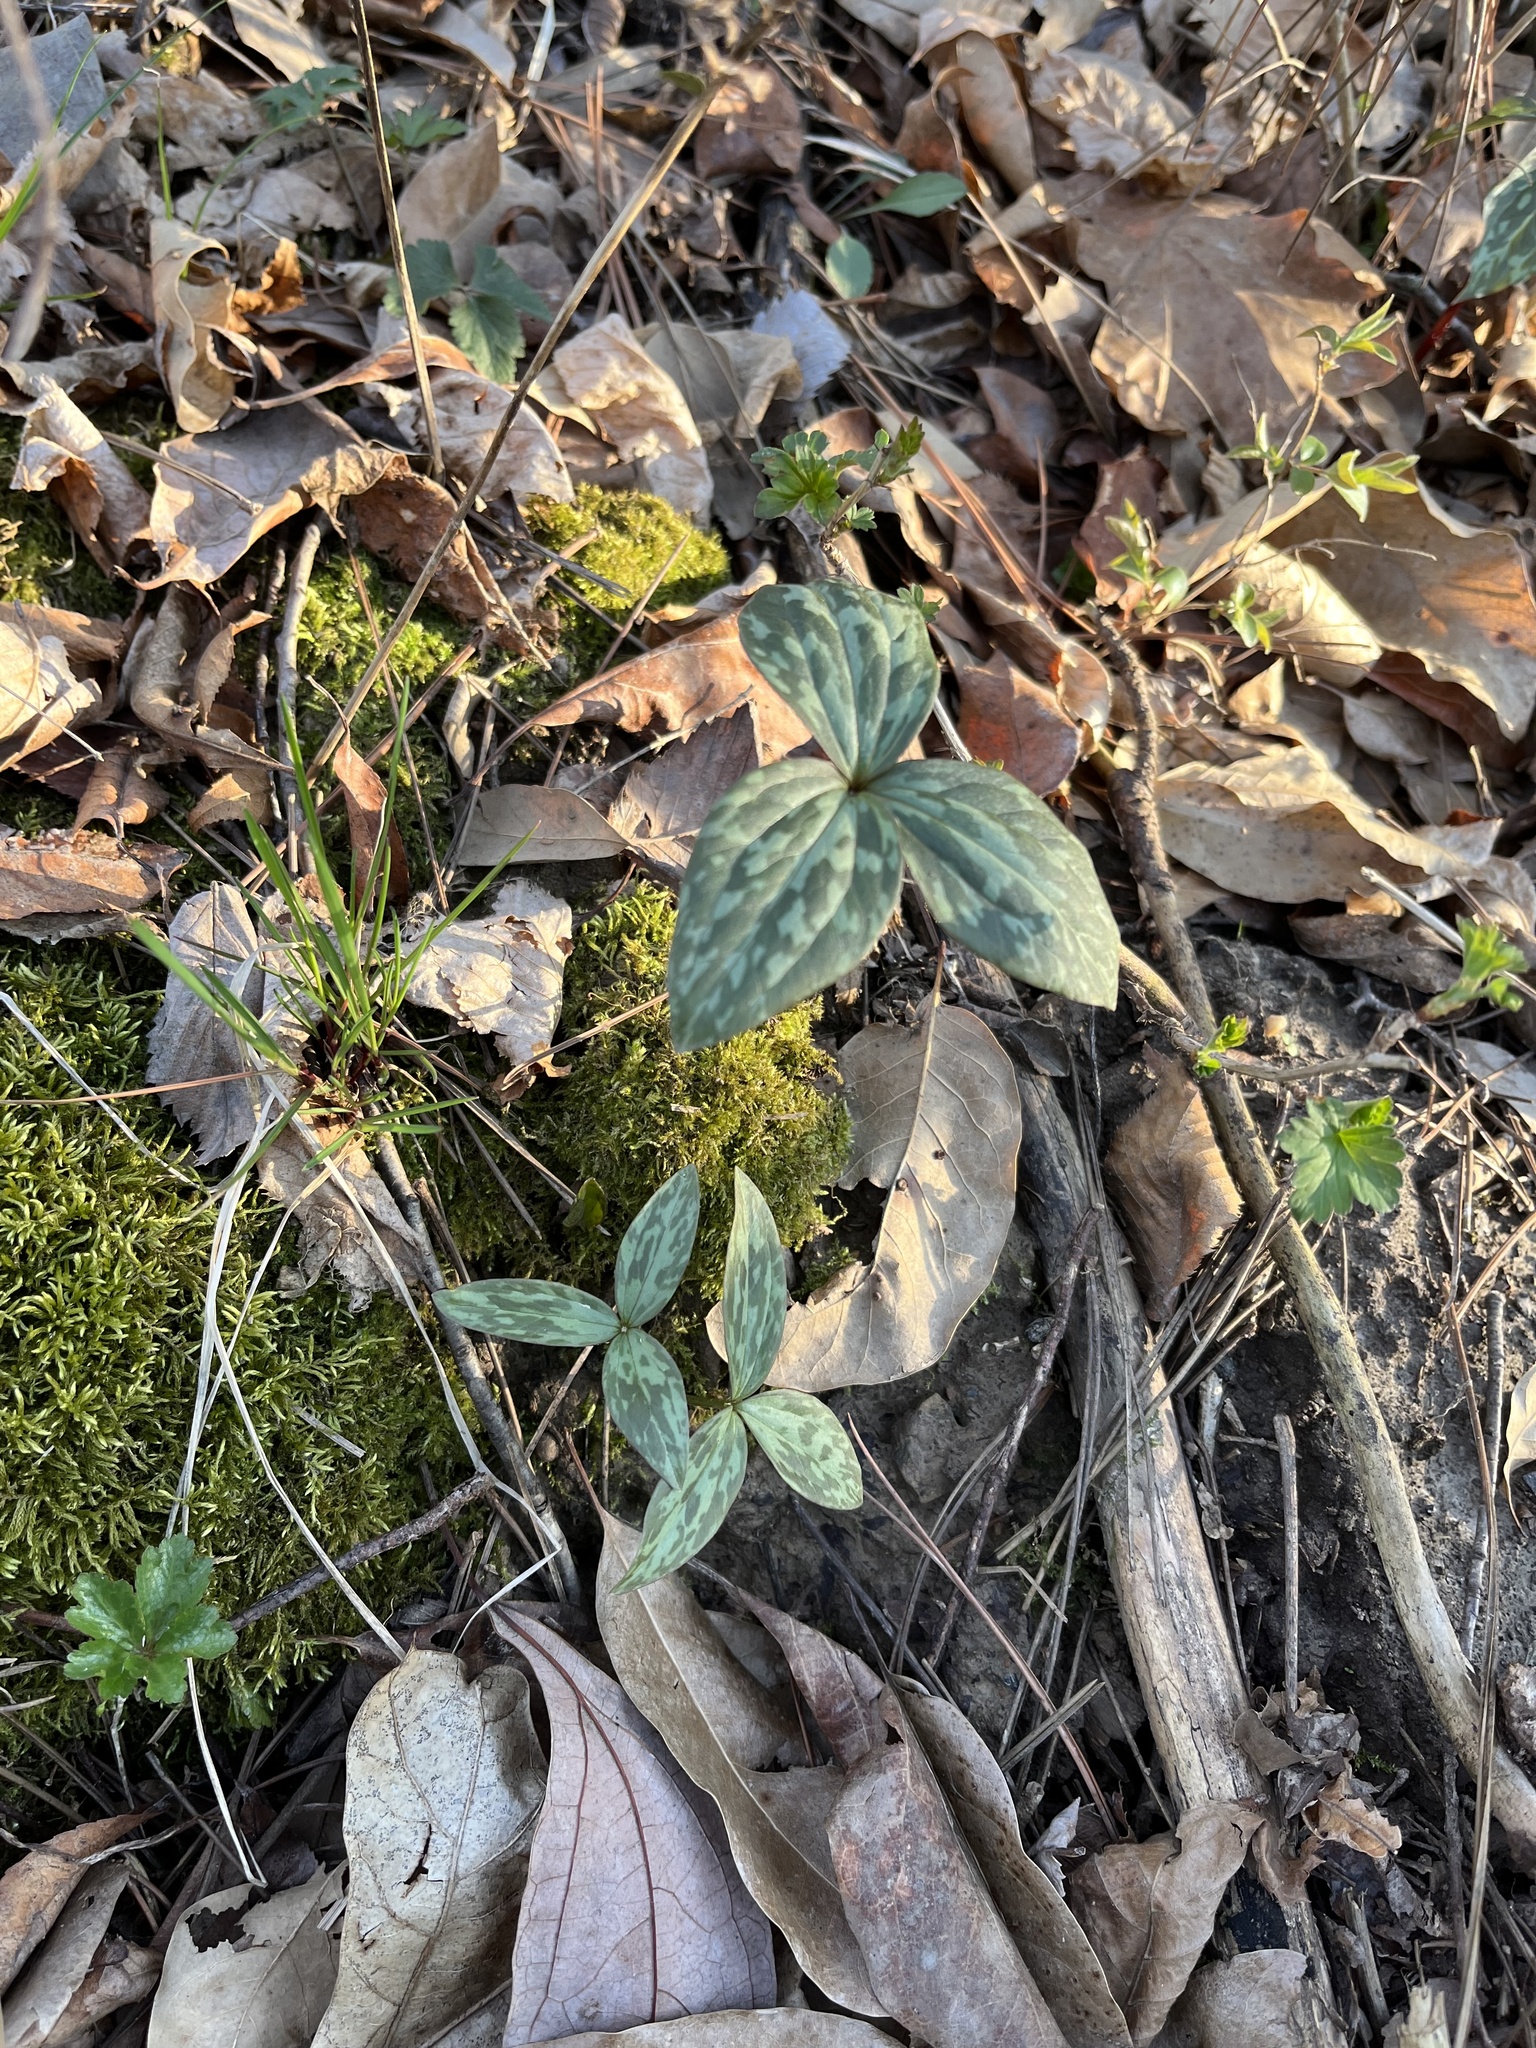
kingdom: Plantae
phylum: Tracheophyta
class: Liliopsida
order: Liliales
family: Melanthiaceae
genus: Trillium
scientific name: Trillium recurvatum
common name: Bloody butcher
